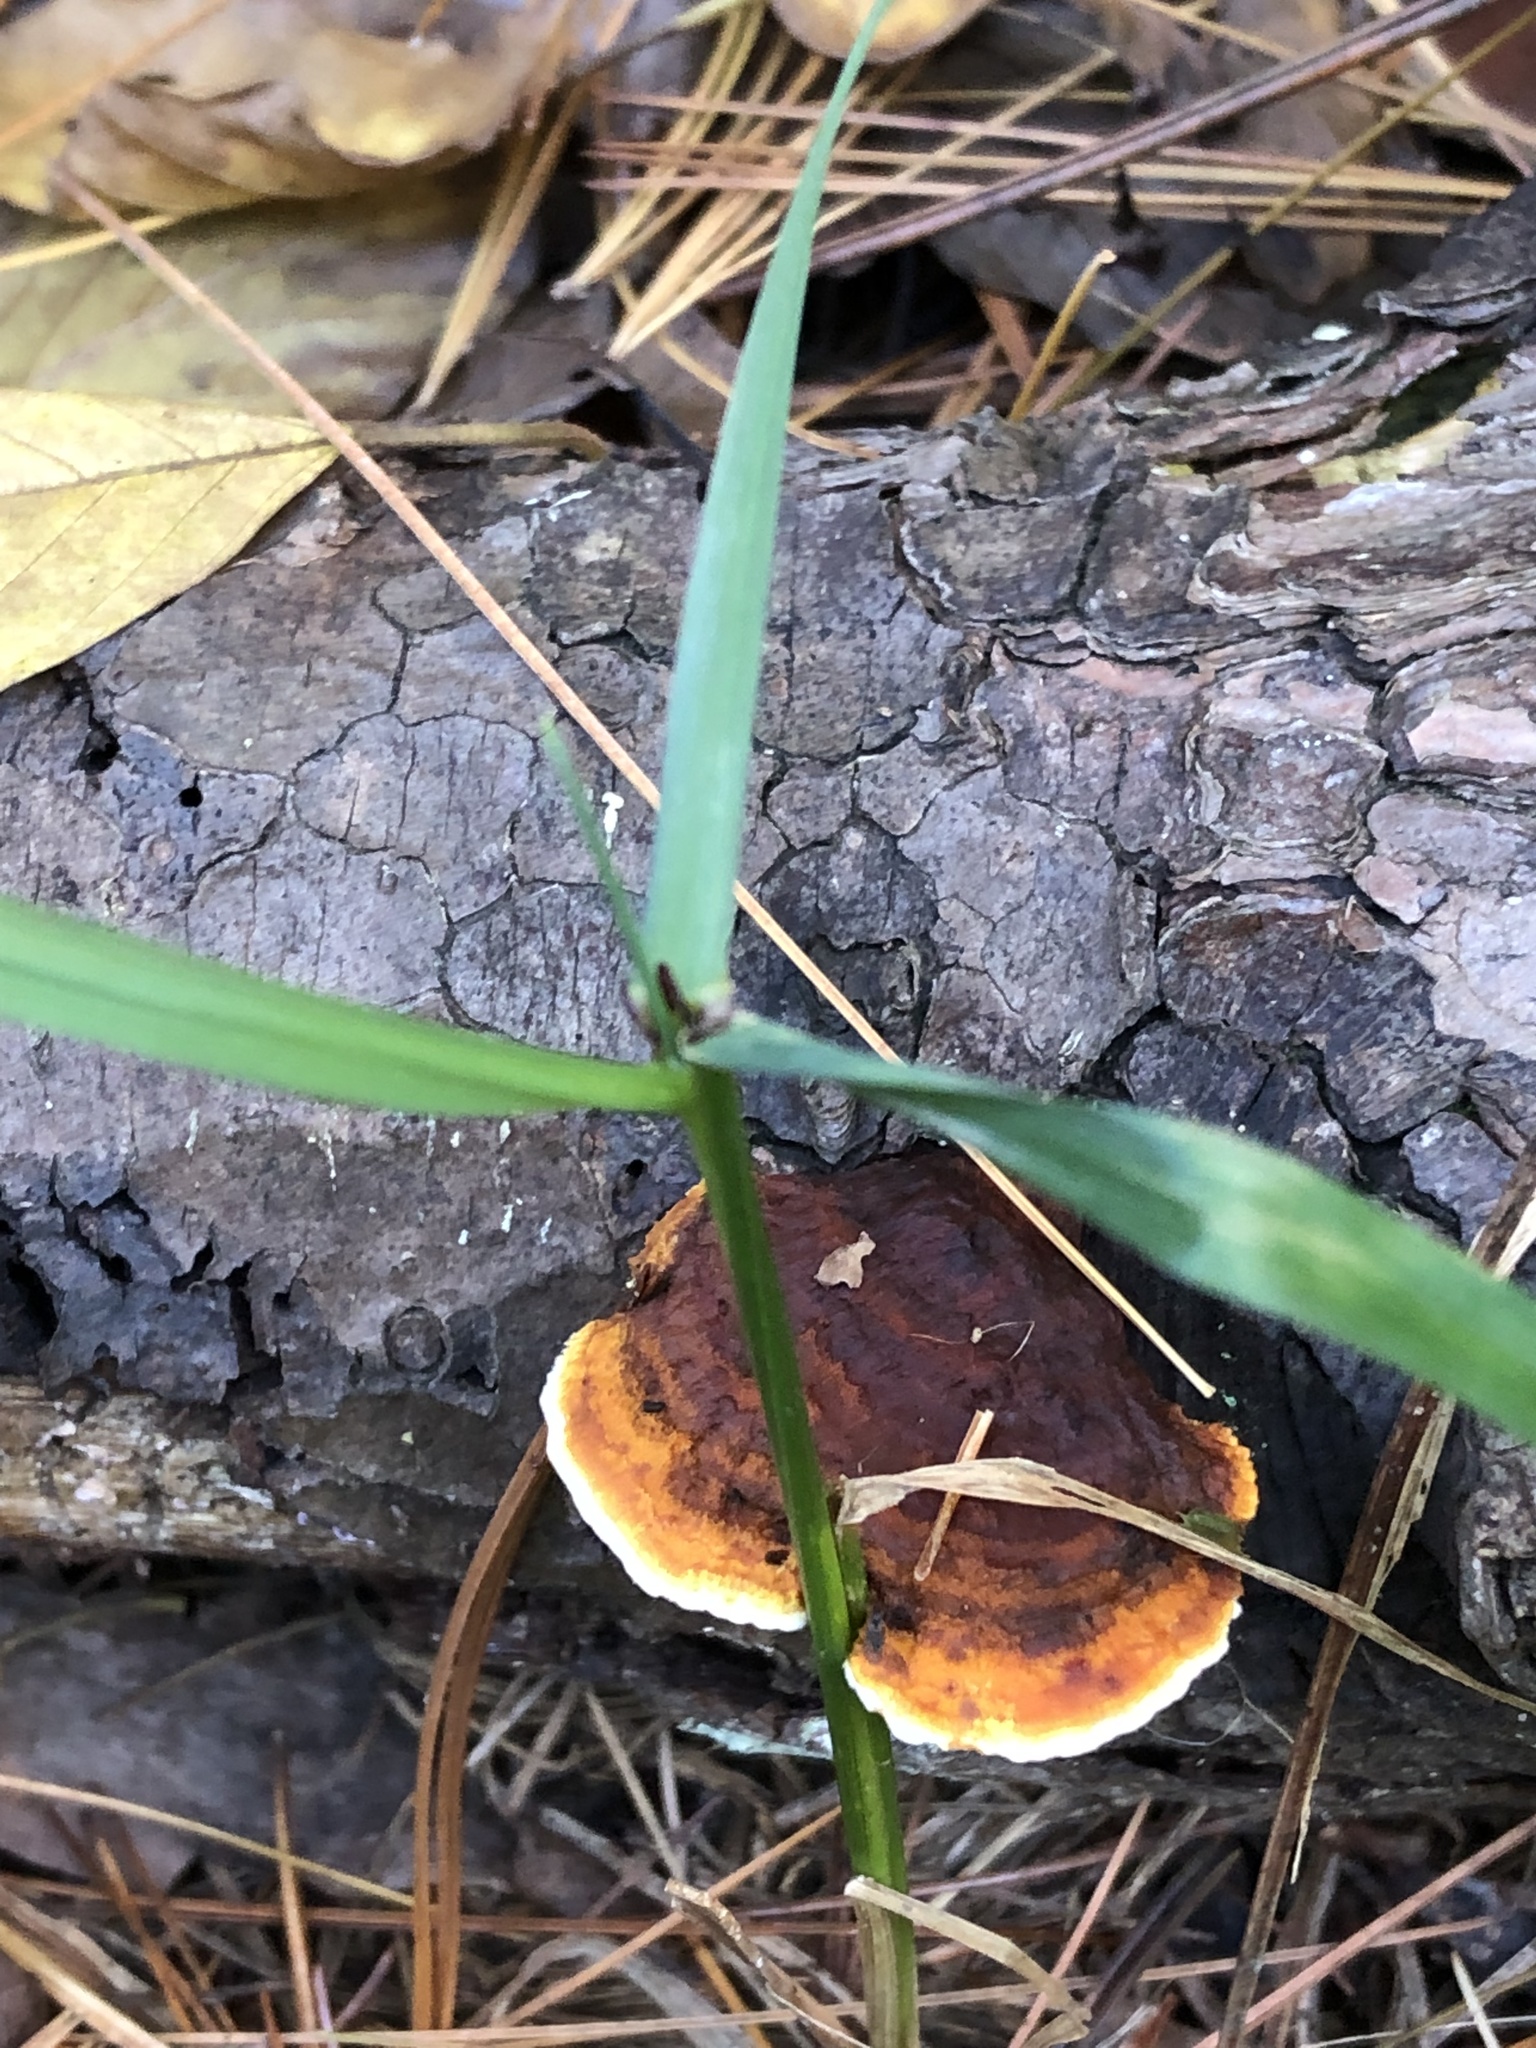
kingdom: Fungi
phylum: Basidiomycota
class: Agaricomycetes
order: Gloeophyllales
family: Gloeophyllaceae
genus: Gloeophyllum
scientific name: Gloeophyllum sepiarium
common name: Conifer mazegill
